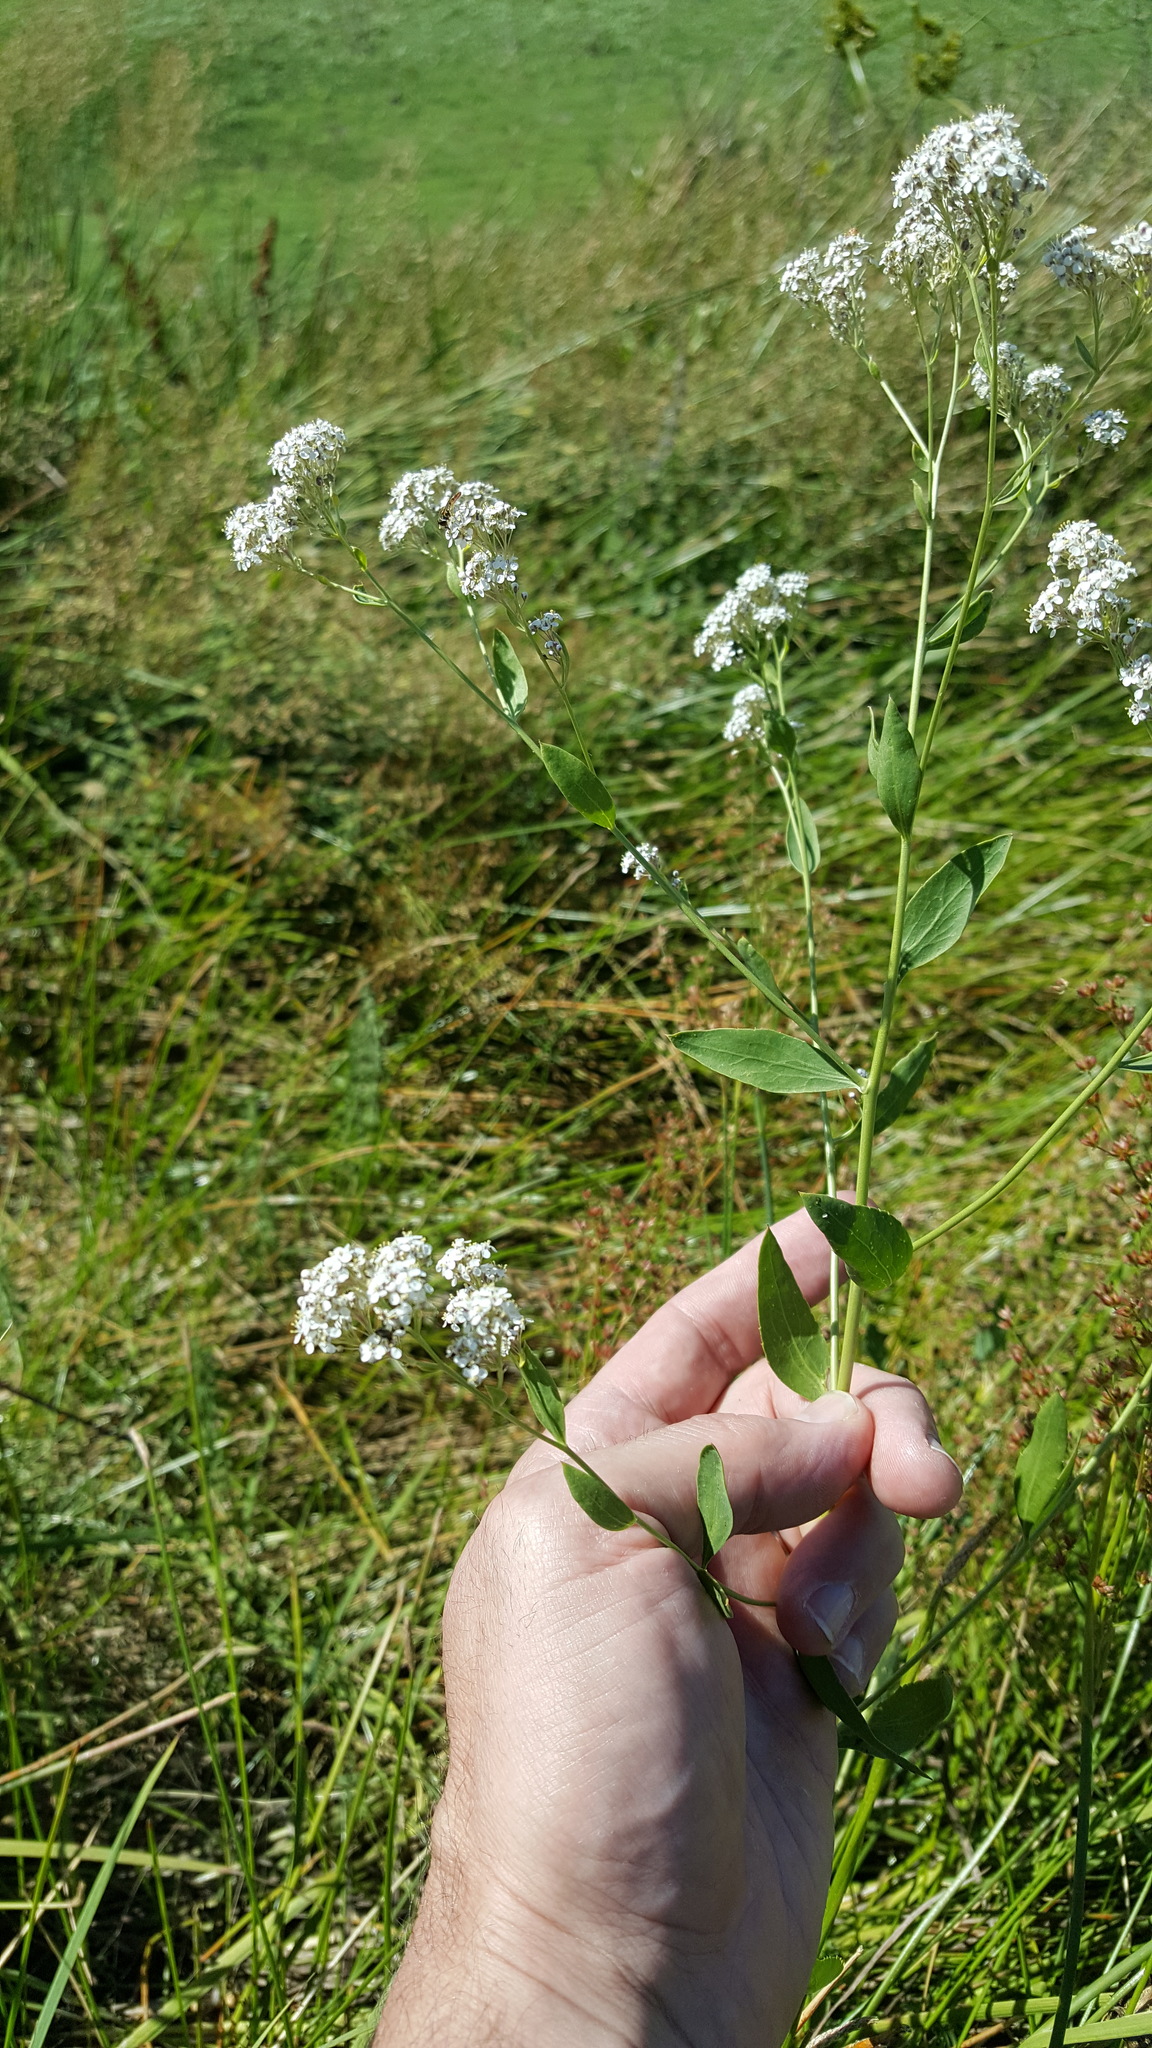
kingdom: Plantae
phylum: Tracheophyta
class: Magnoliopsida
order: Brassicales
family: Brassicaceae
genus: Lepidium
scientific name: Lepidium latifolium
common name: Dittander
